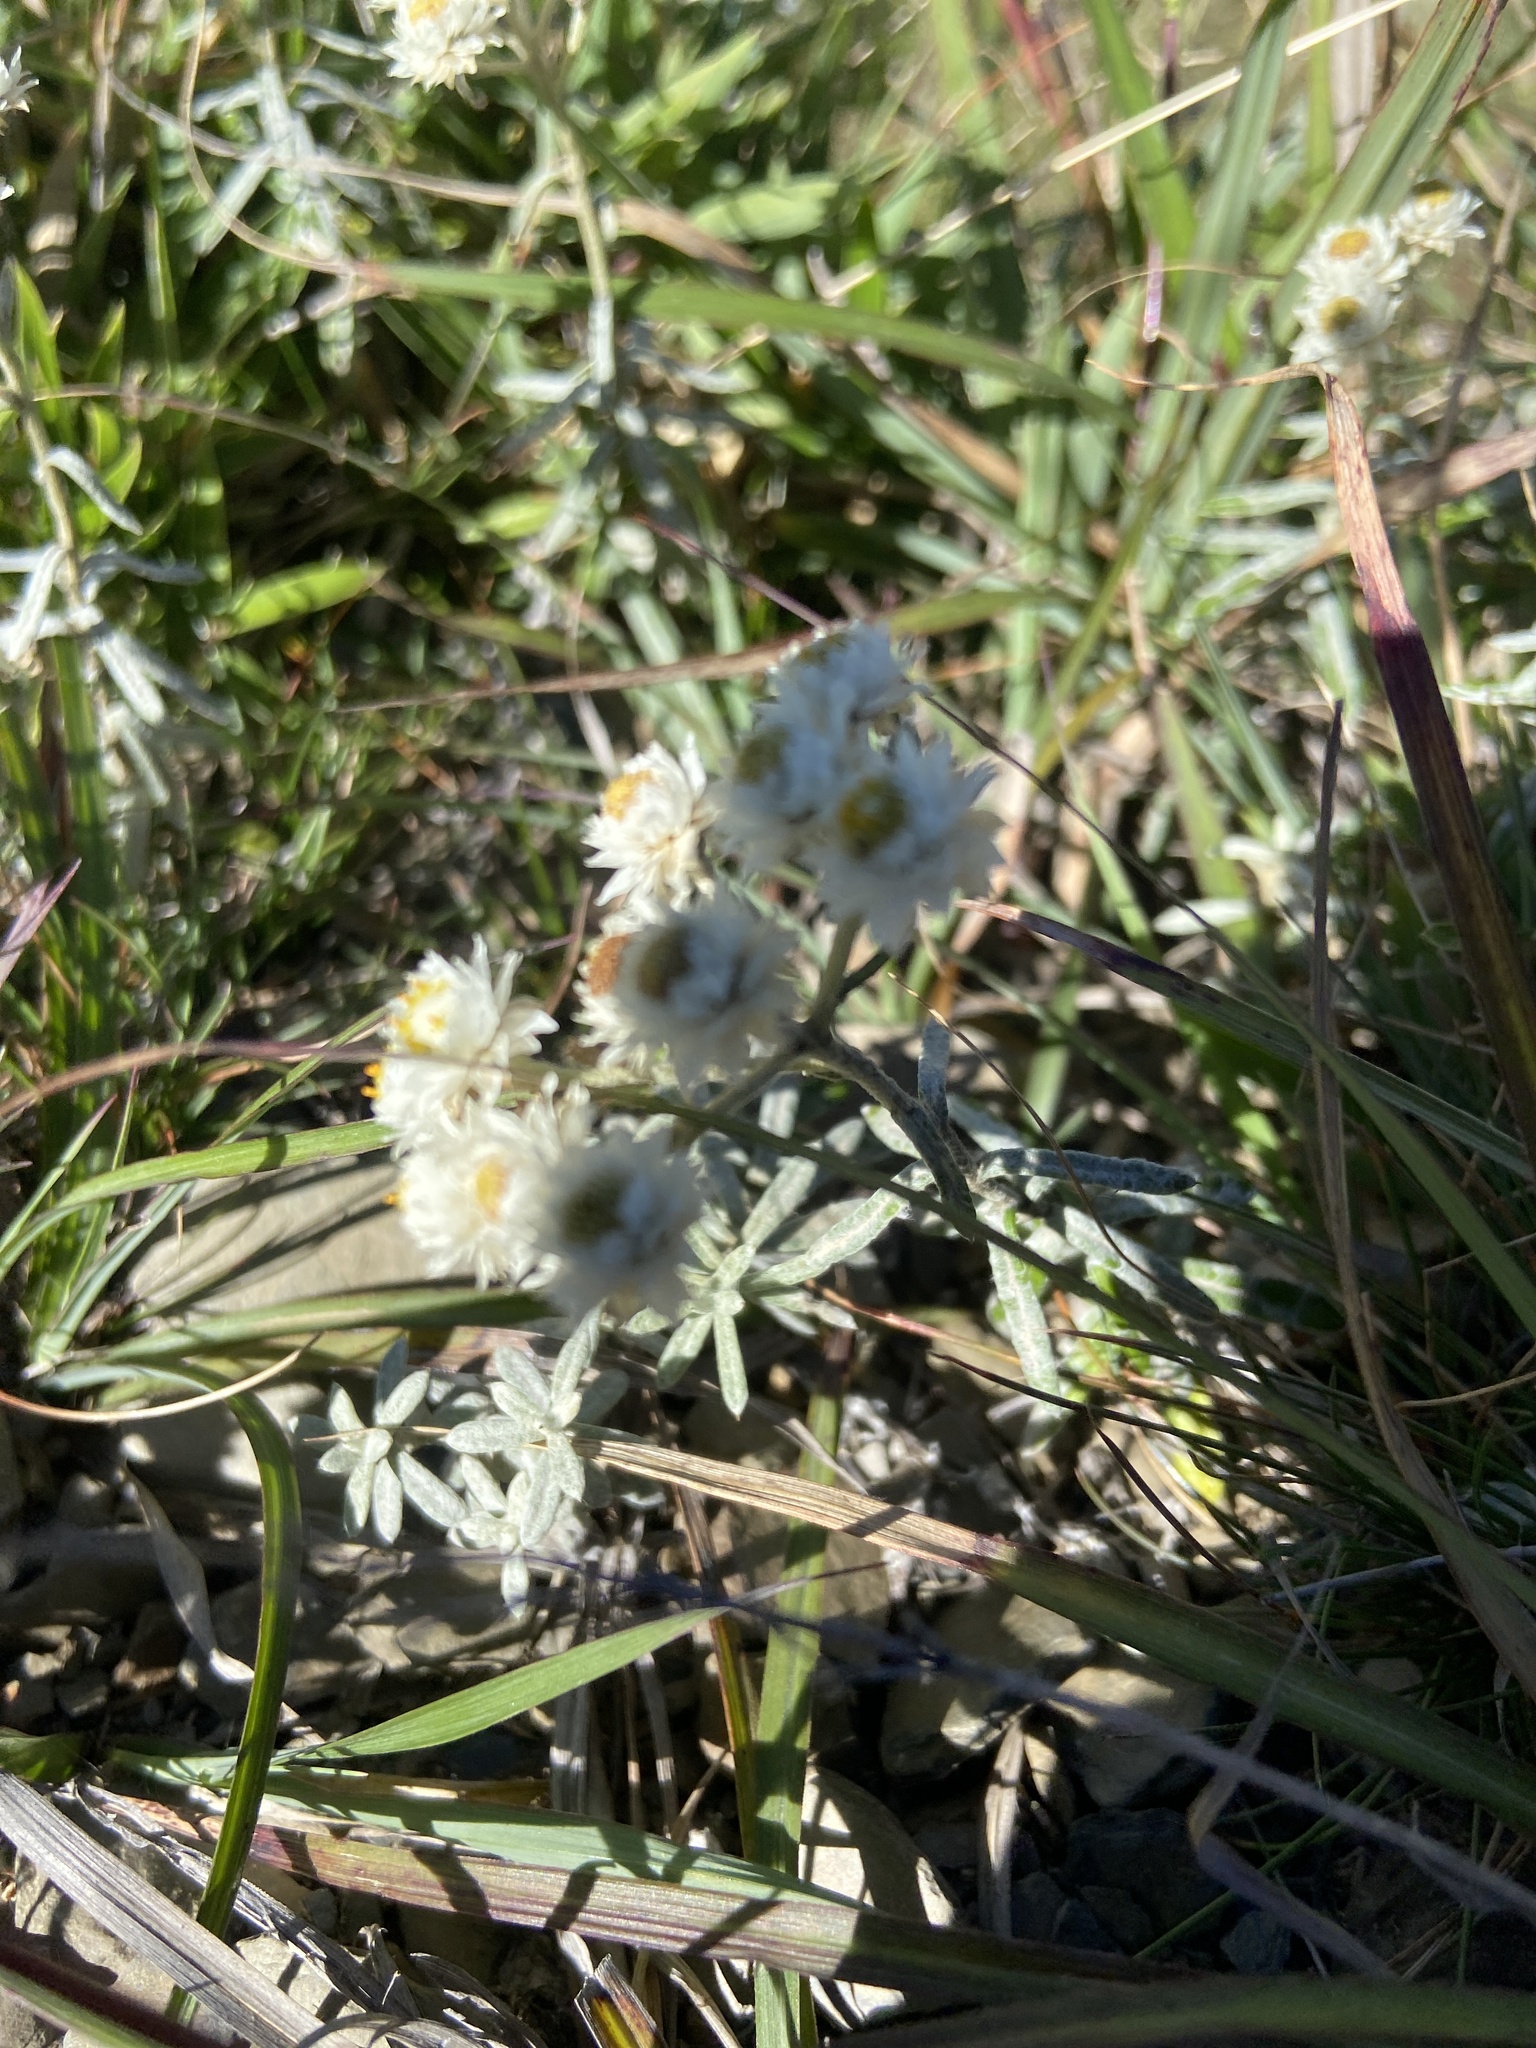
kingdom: Plantae
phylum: Tracheophyta
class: Magnoliopsida
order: Asterales
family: Asteraceae
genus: Anaphalis
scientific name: Anaphalis morrisonicola
